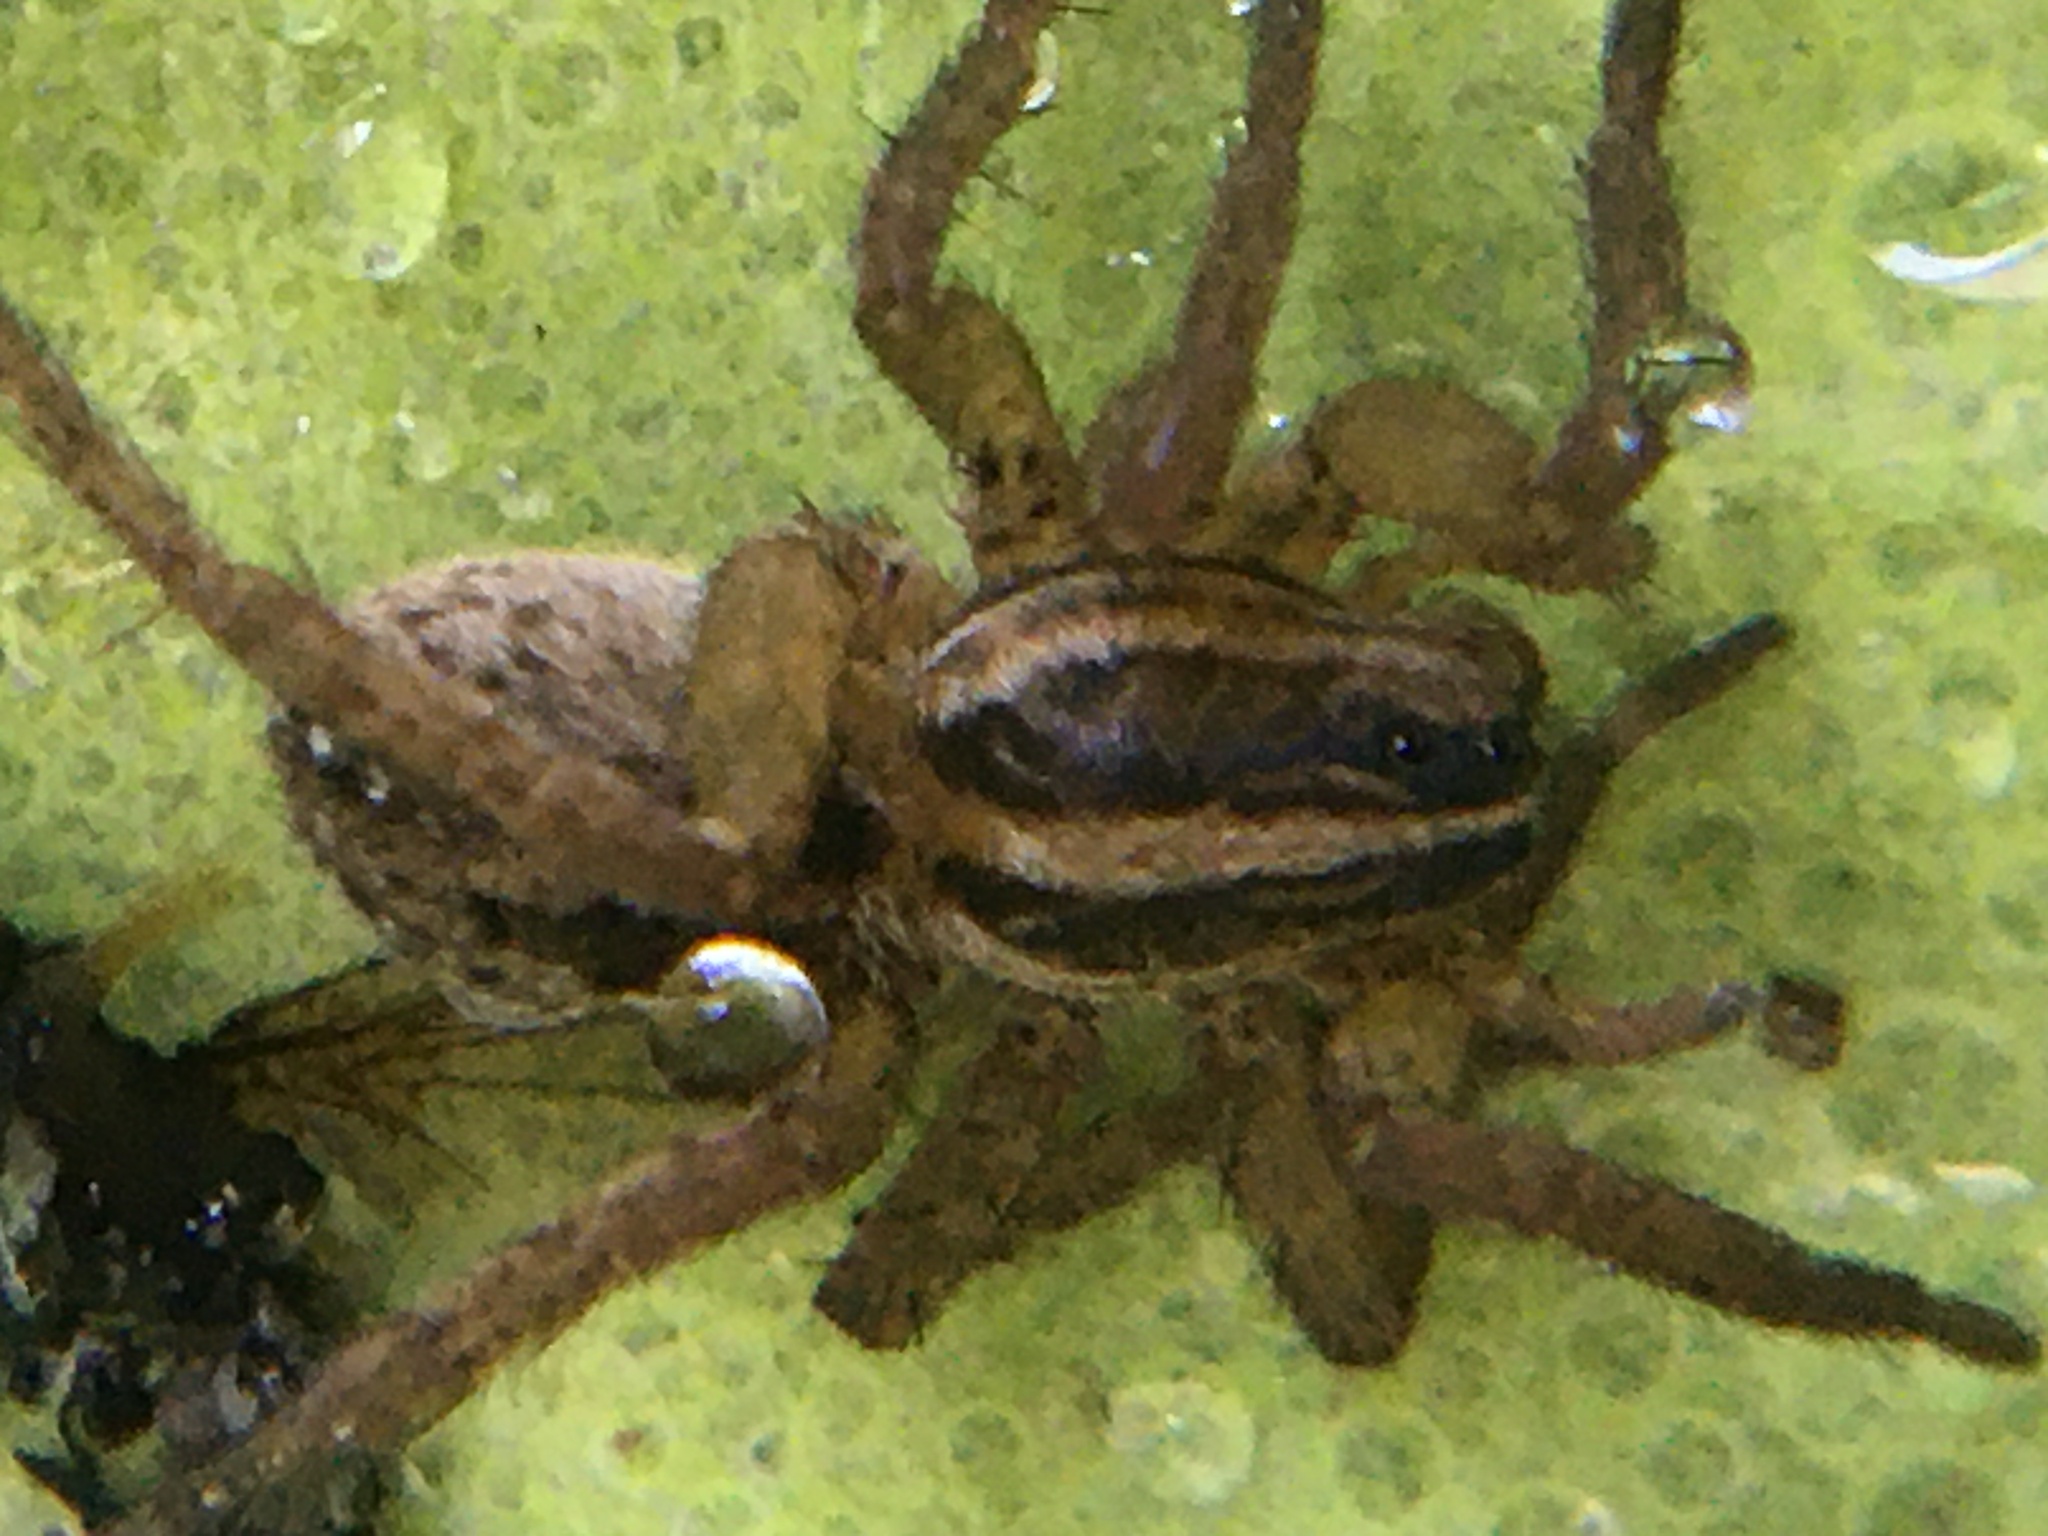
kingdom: Animalia
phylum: Arthropoda
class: Arachnida
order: Araneae
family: Lycosidae
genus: Tigrosa
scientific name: Tigrosa annexa
